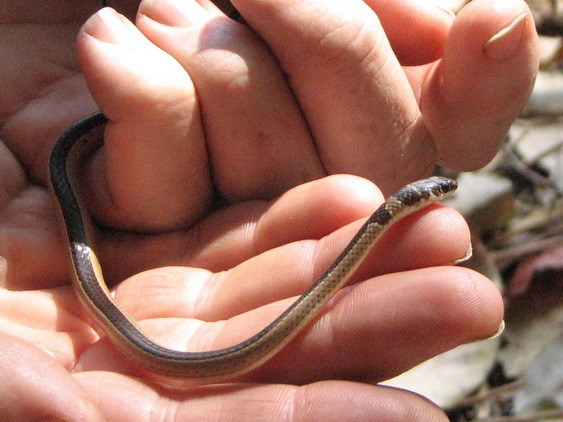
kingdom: Animalia
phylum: Chordata
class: Squamata
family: Psammophiidae
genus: Psammophis
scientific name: Psammophis angolensis
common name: Dwarf sand snake
